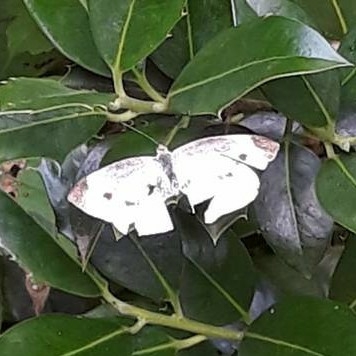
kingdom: Animalia
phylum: Arthropoda
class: Insecta
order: Lepidoptera
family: Pieridae
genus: Pieris
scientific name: Pieris rapae
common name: Small white
